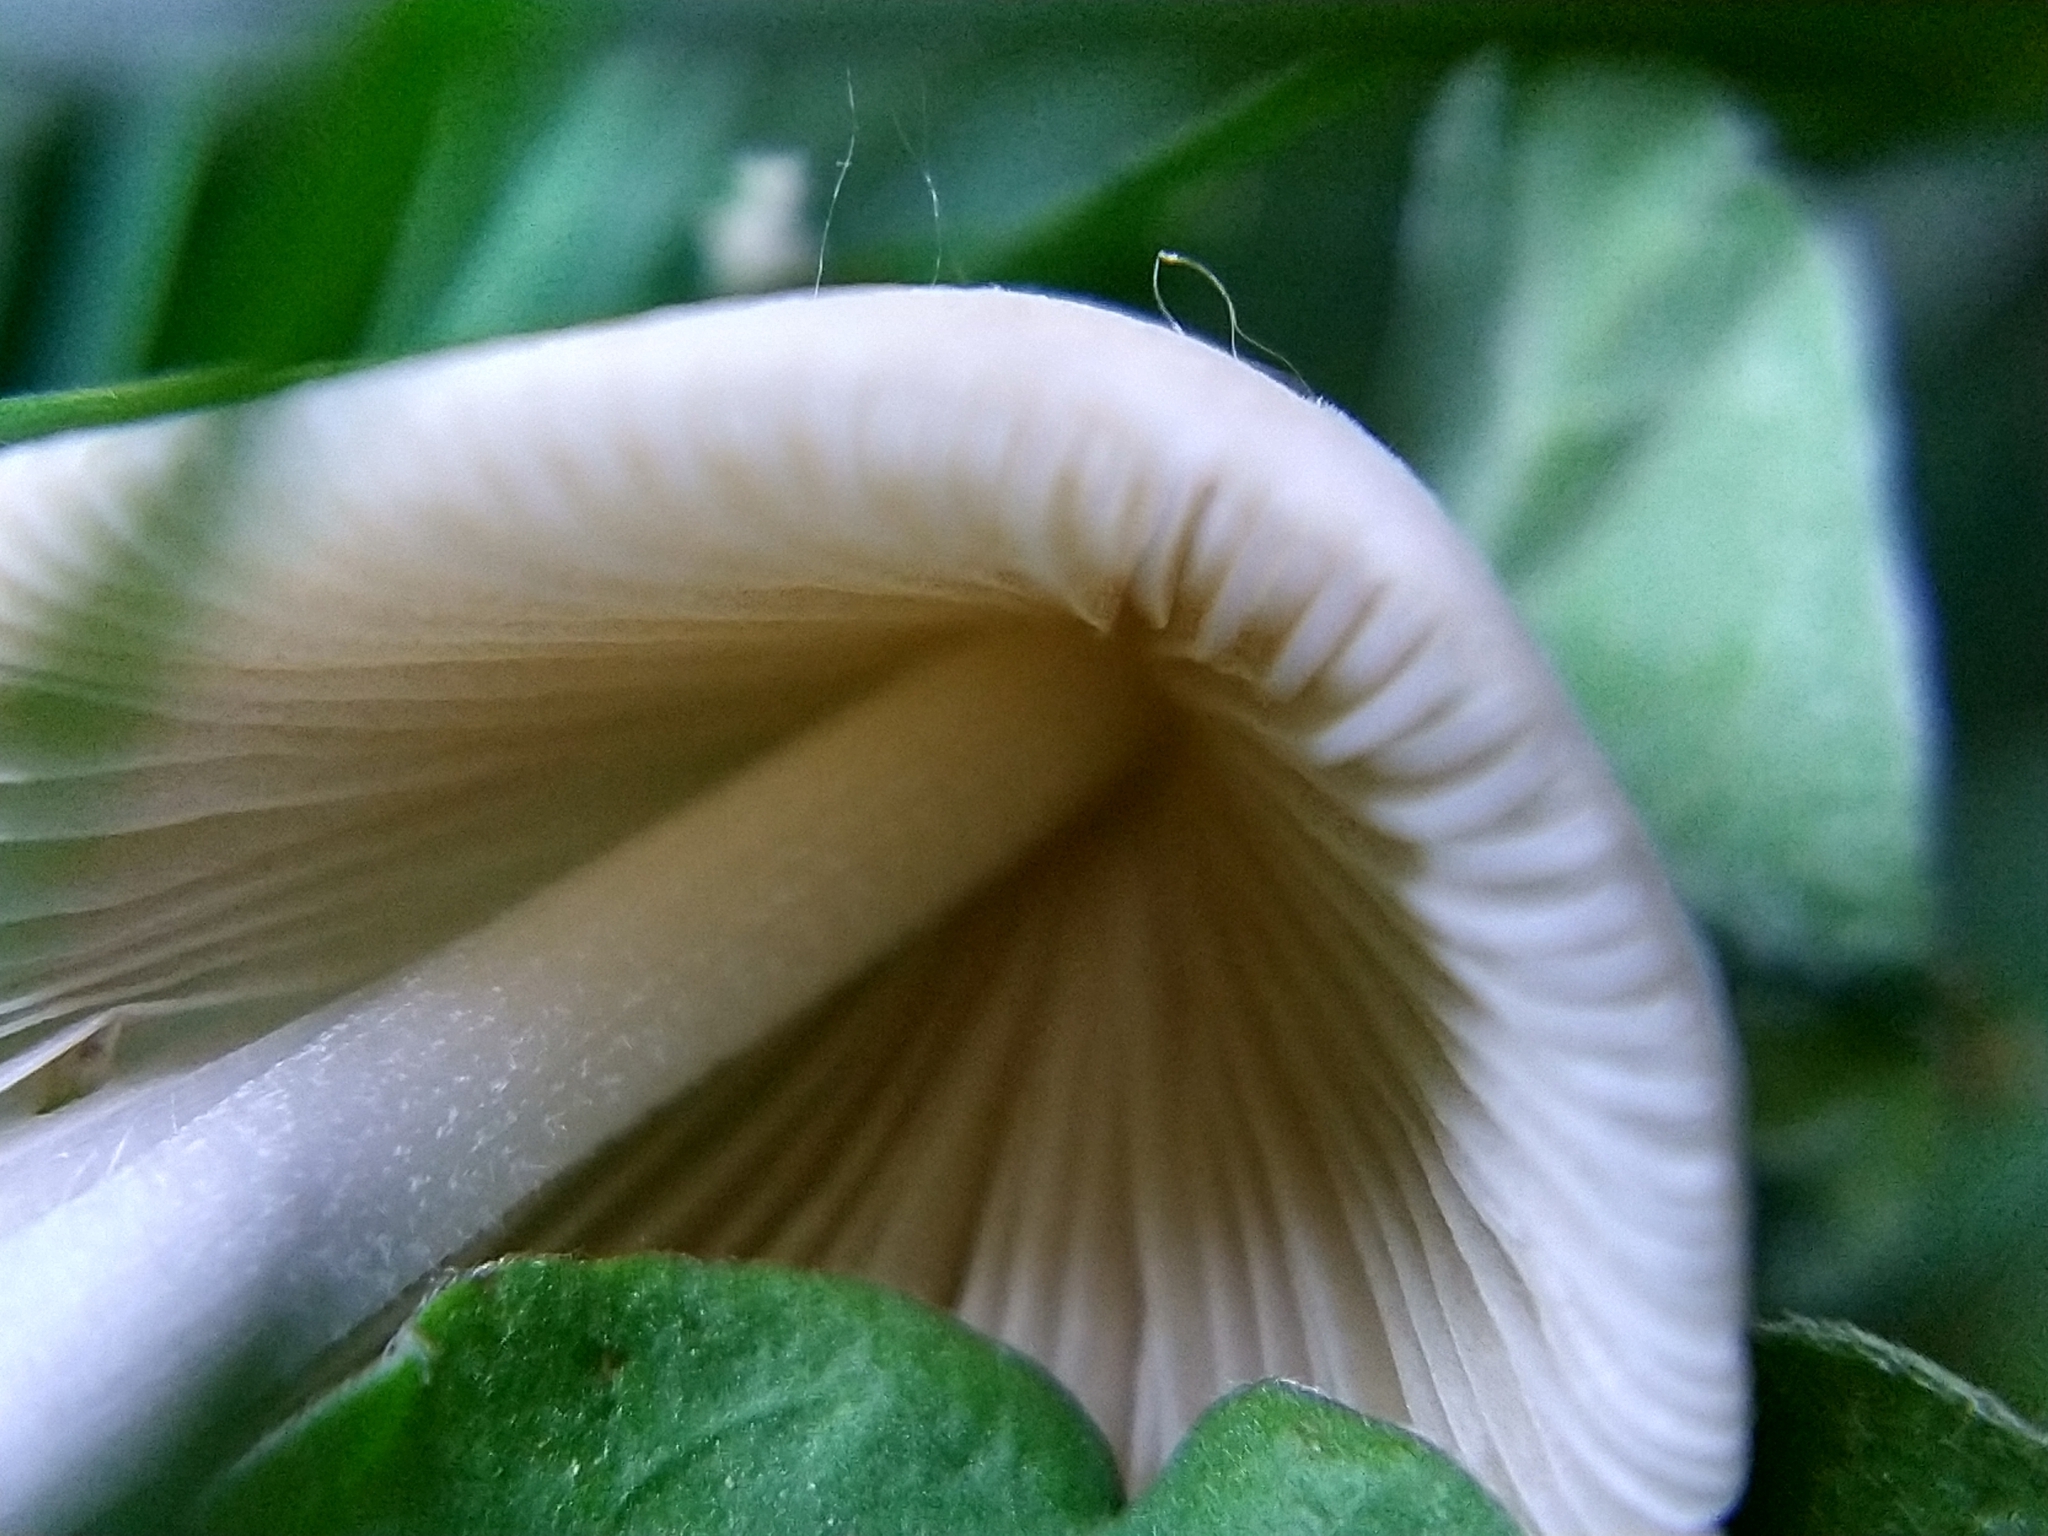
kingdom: Fungi
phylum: Basidiomycota
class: Agaricomycetes
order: Agaricales
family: Bolbitiaceae
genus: Conocybe
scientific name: Conocybe apala
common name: Milky conecap
